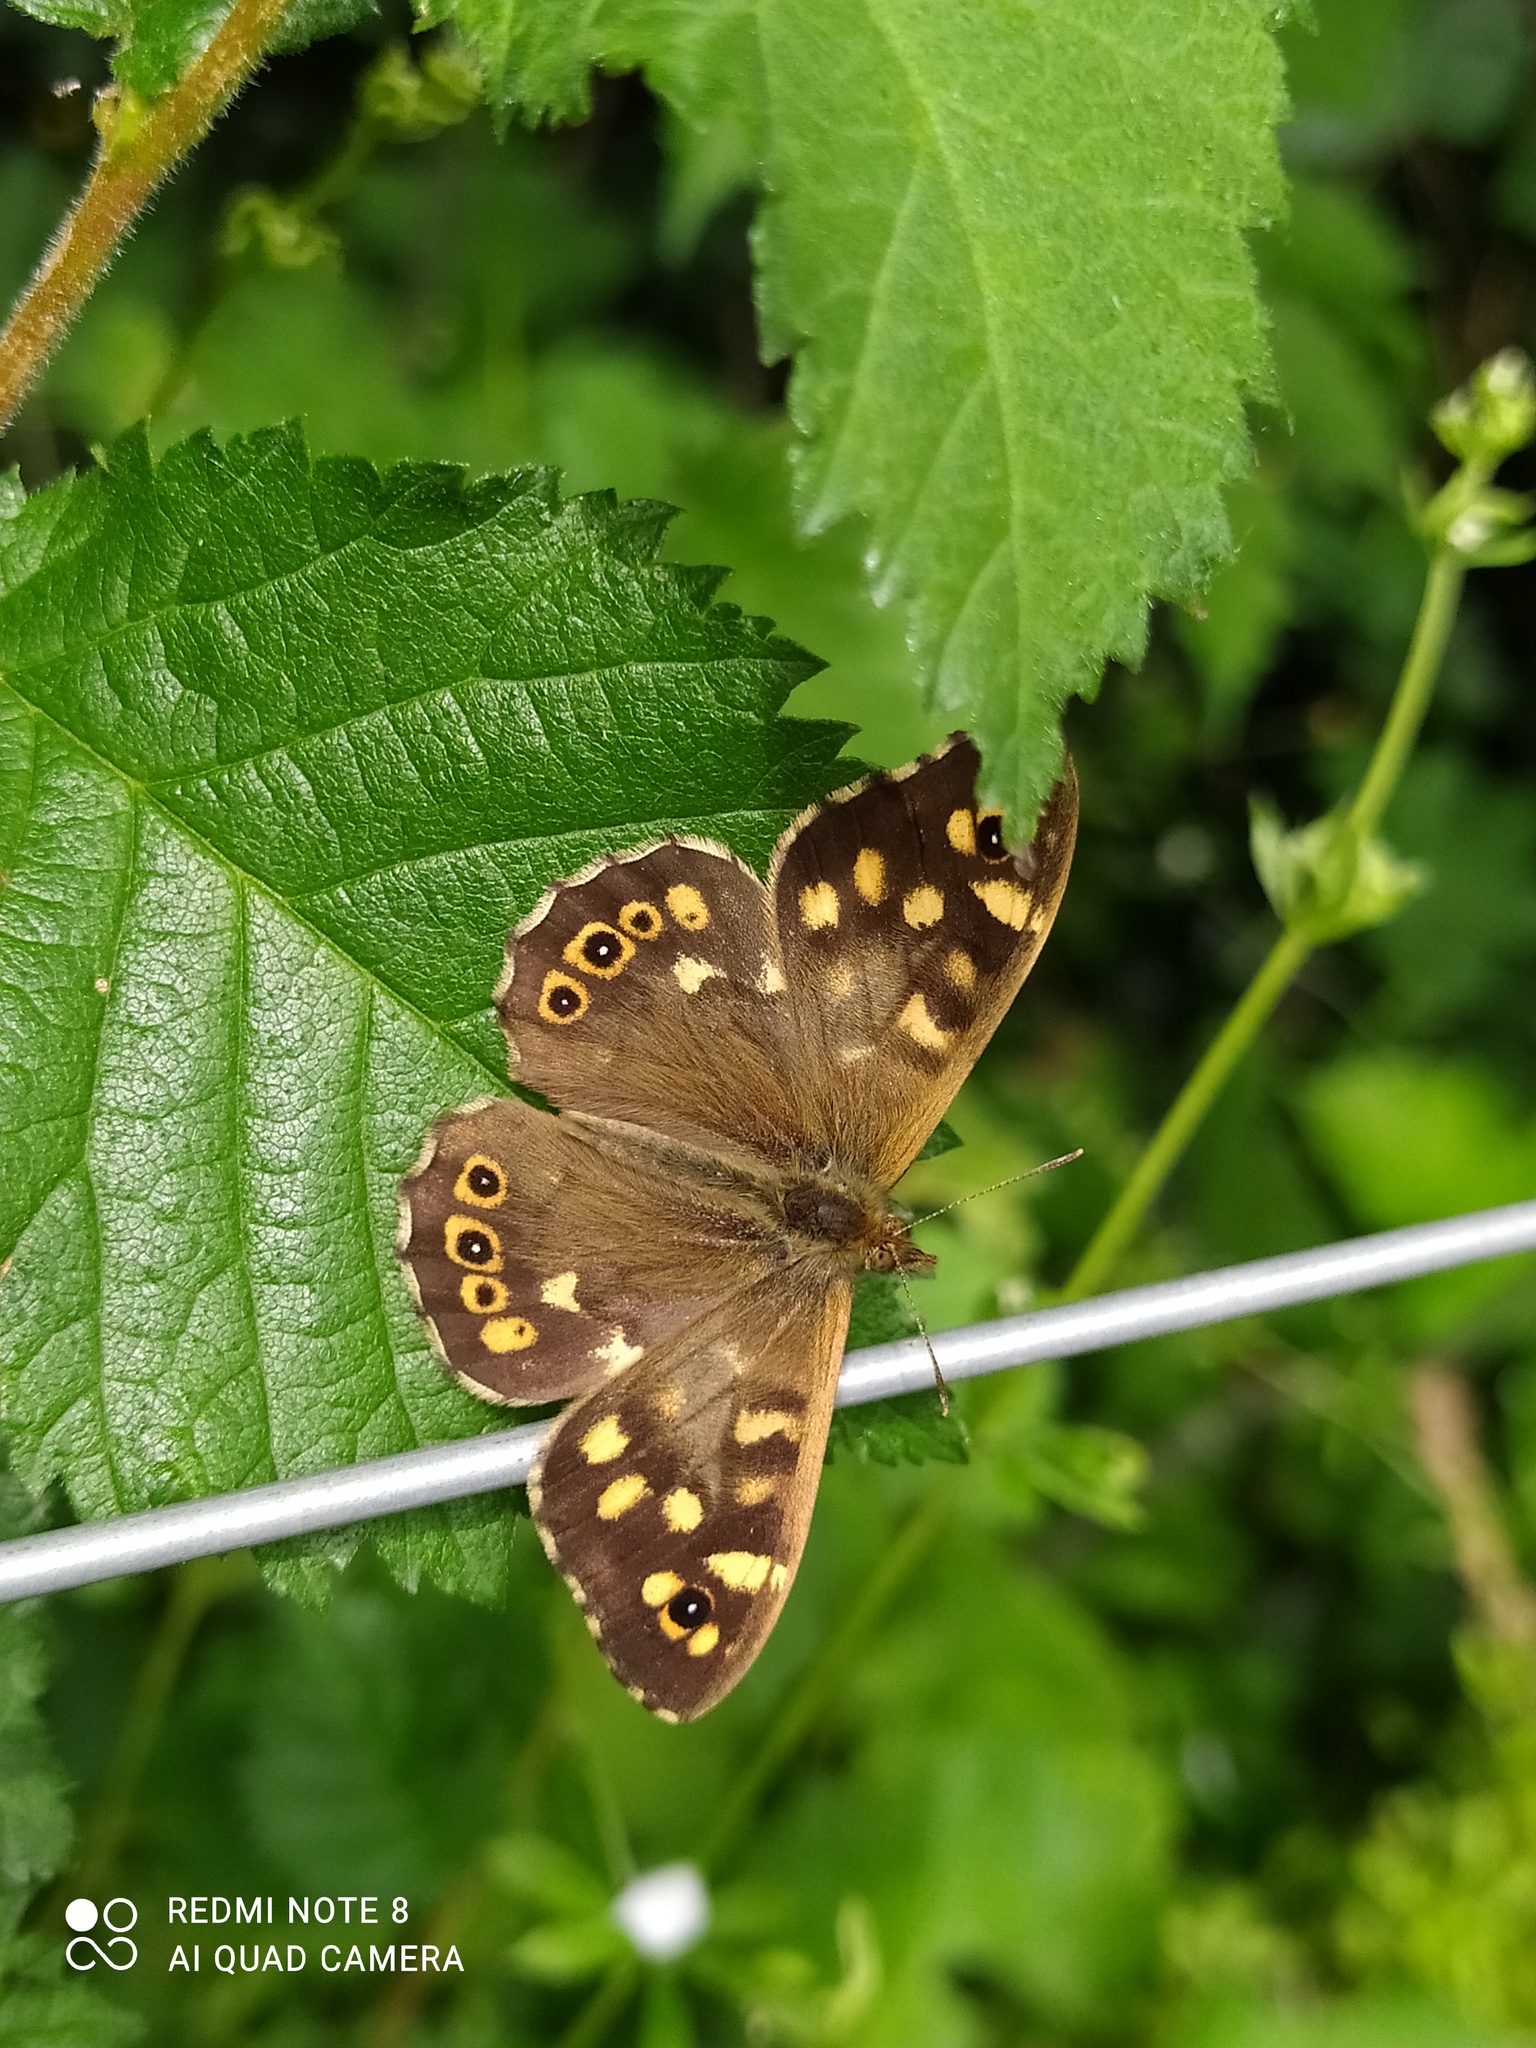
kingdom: Animalia
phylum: Arthropoda
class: Insecta
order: Lepidoptera
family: Nymphalidae
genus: Pararge
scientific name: Pararge aegeria
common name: Speckled wood
